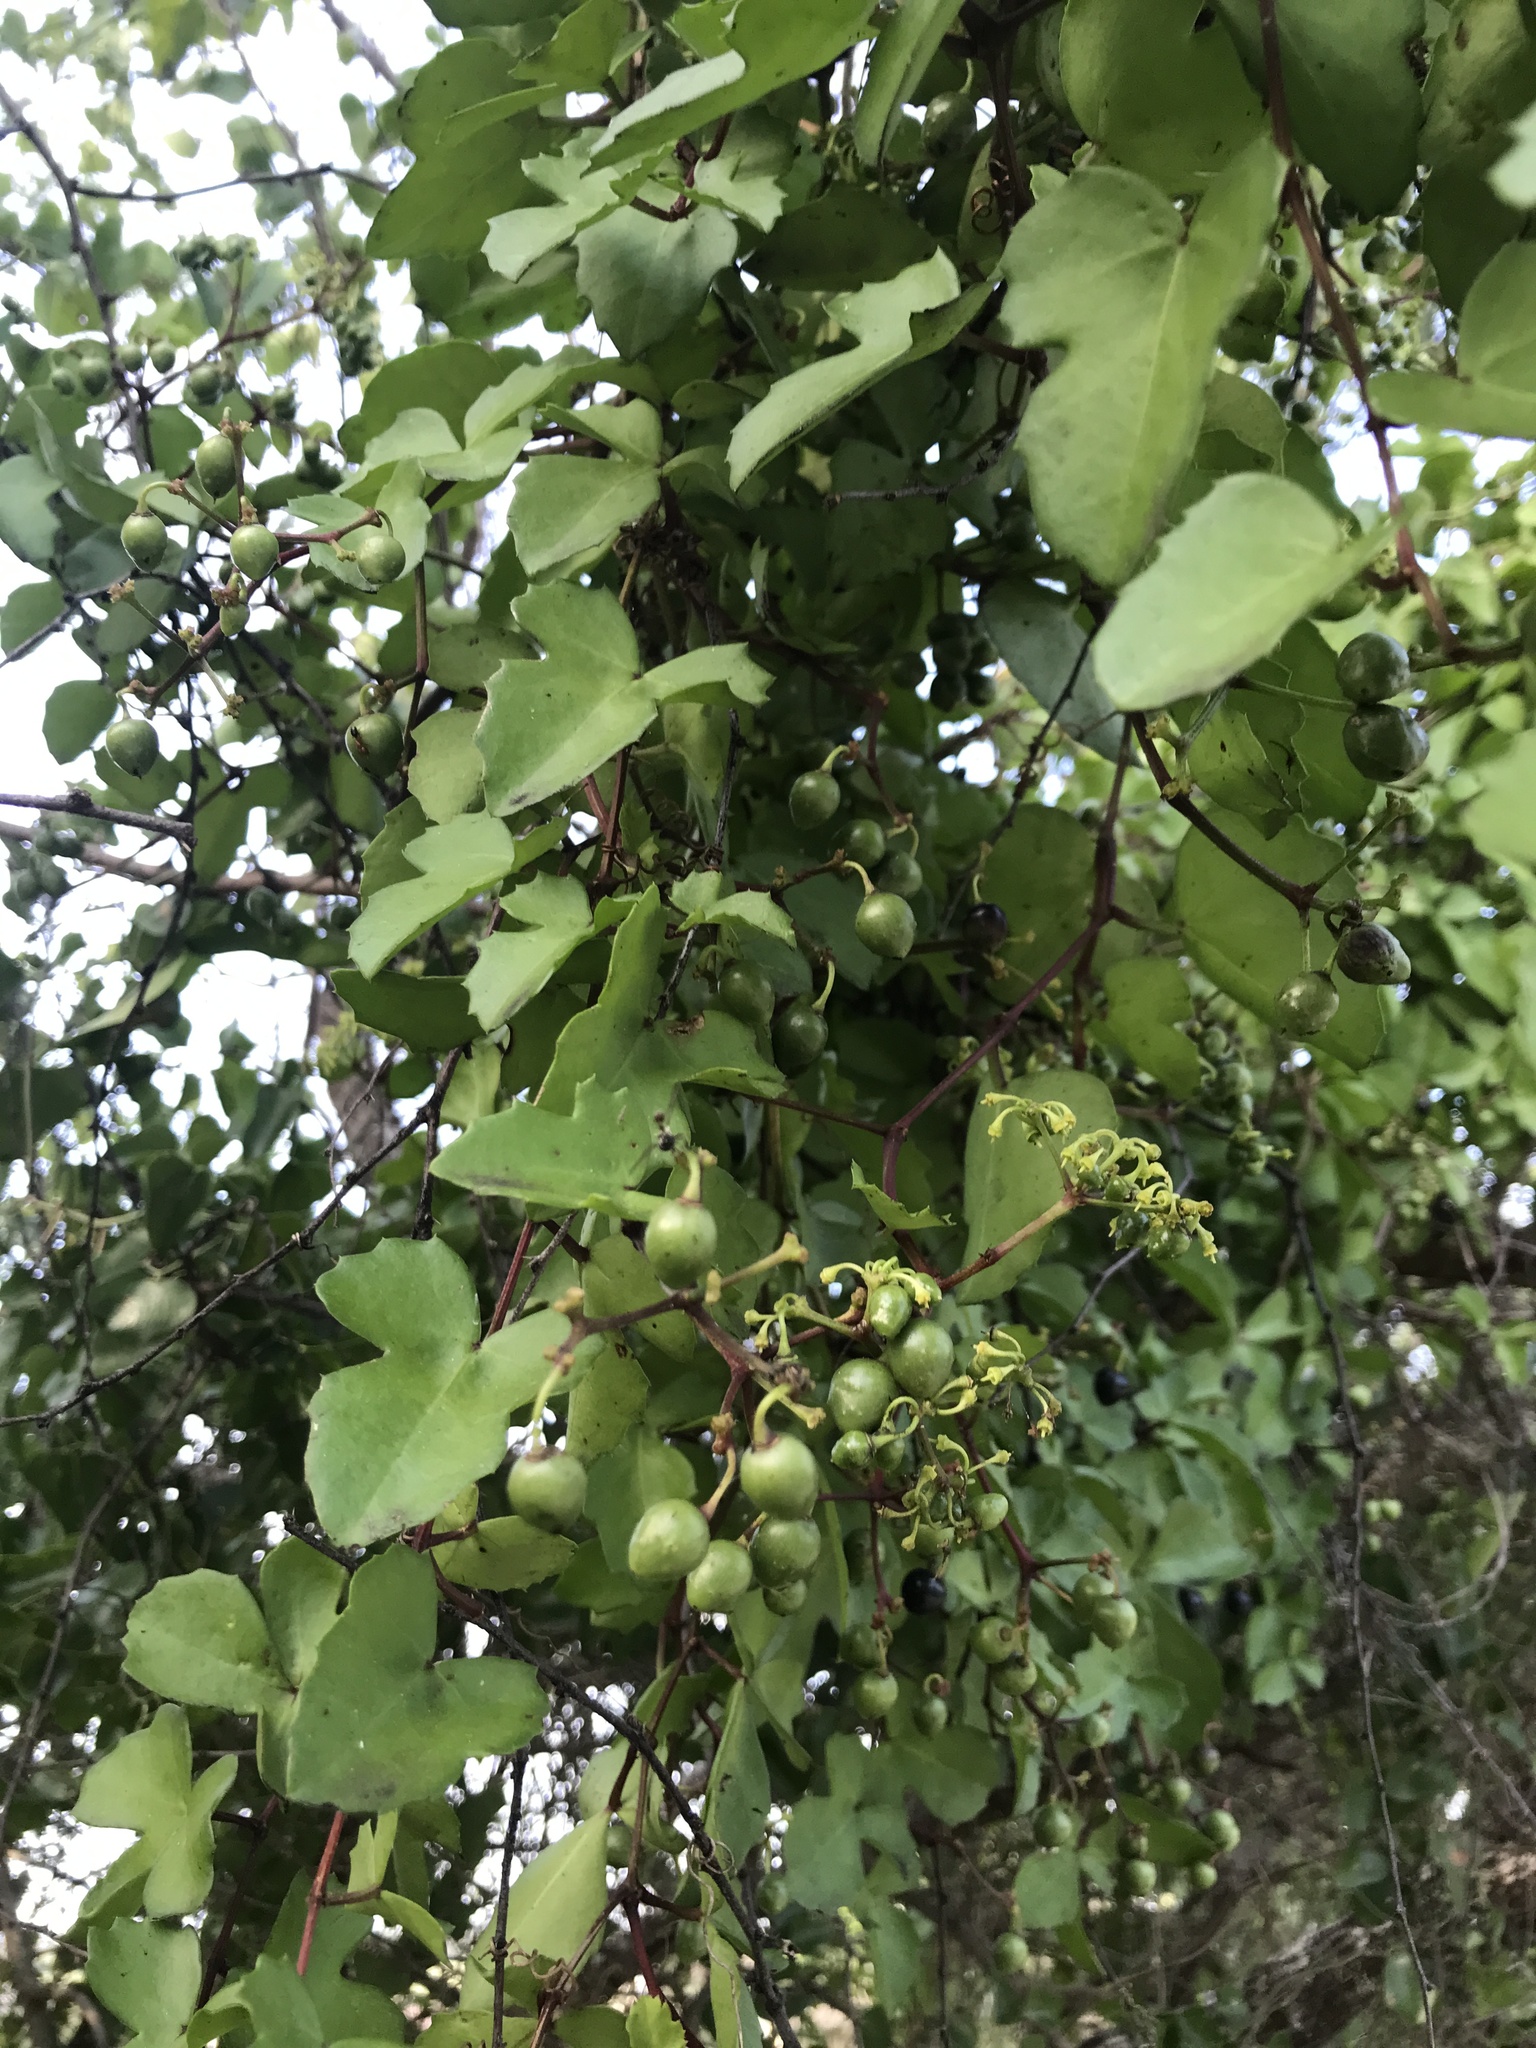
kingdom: Plantae
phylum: Tracheophyta
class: Magnoliopsida
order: Vitales
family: Vitaceae
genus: Cissus
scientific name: Cissus trifoliata
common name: Vine-sorrel
